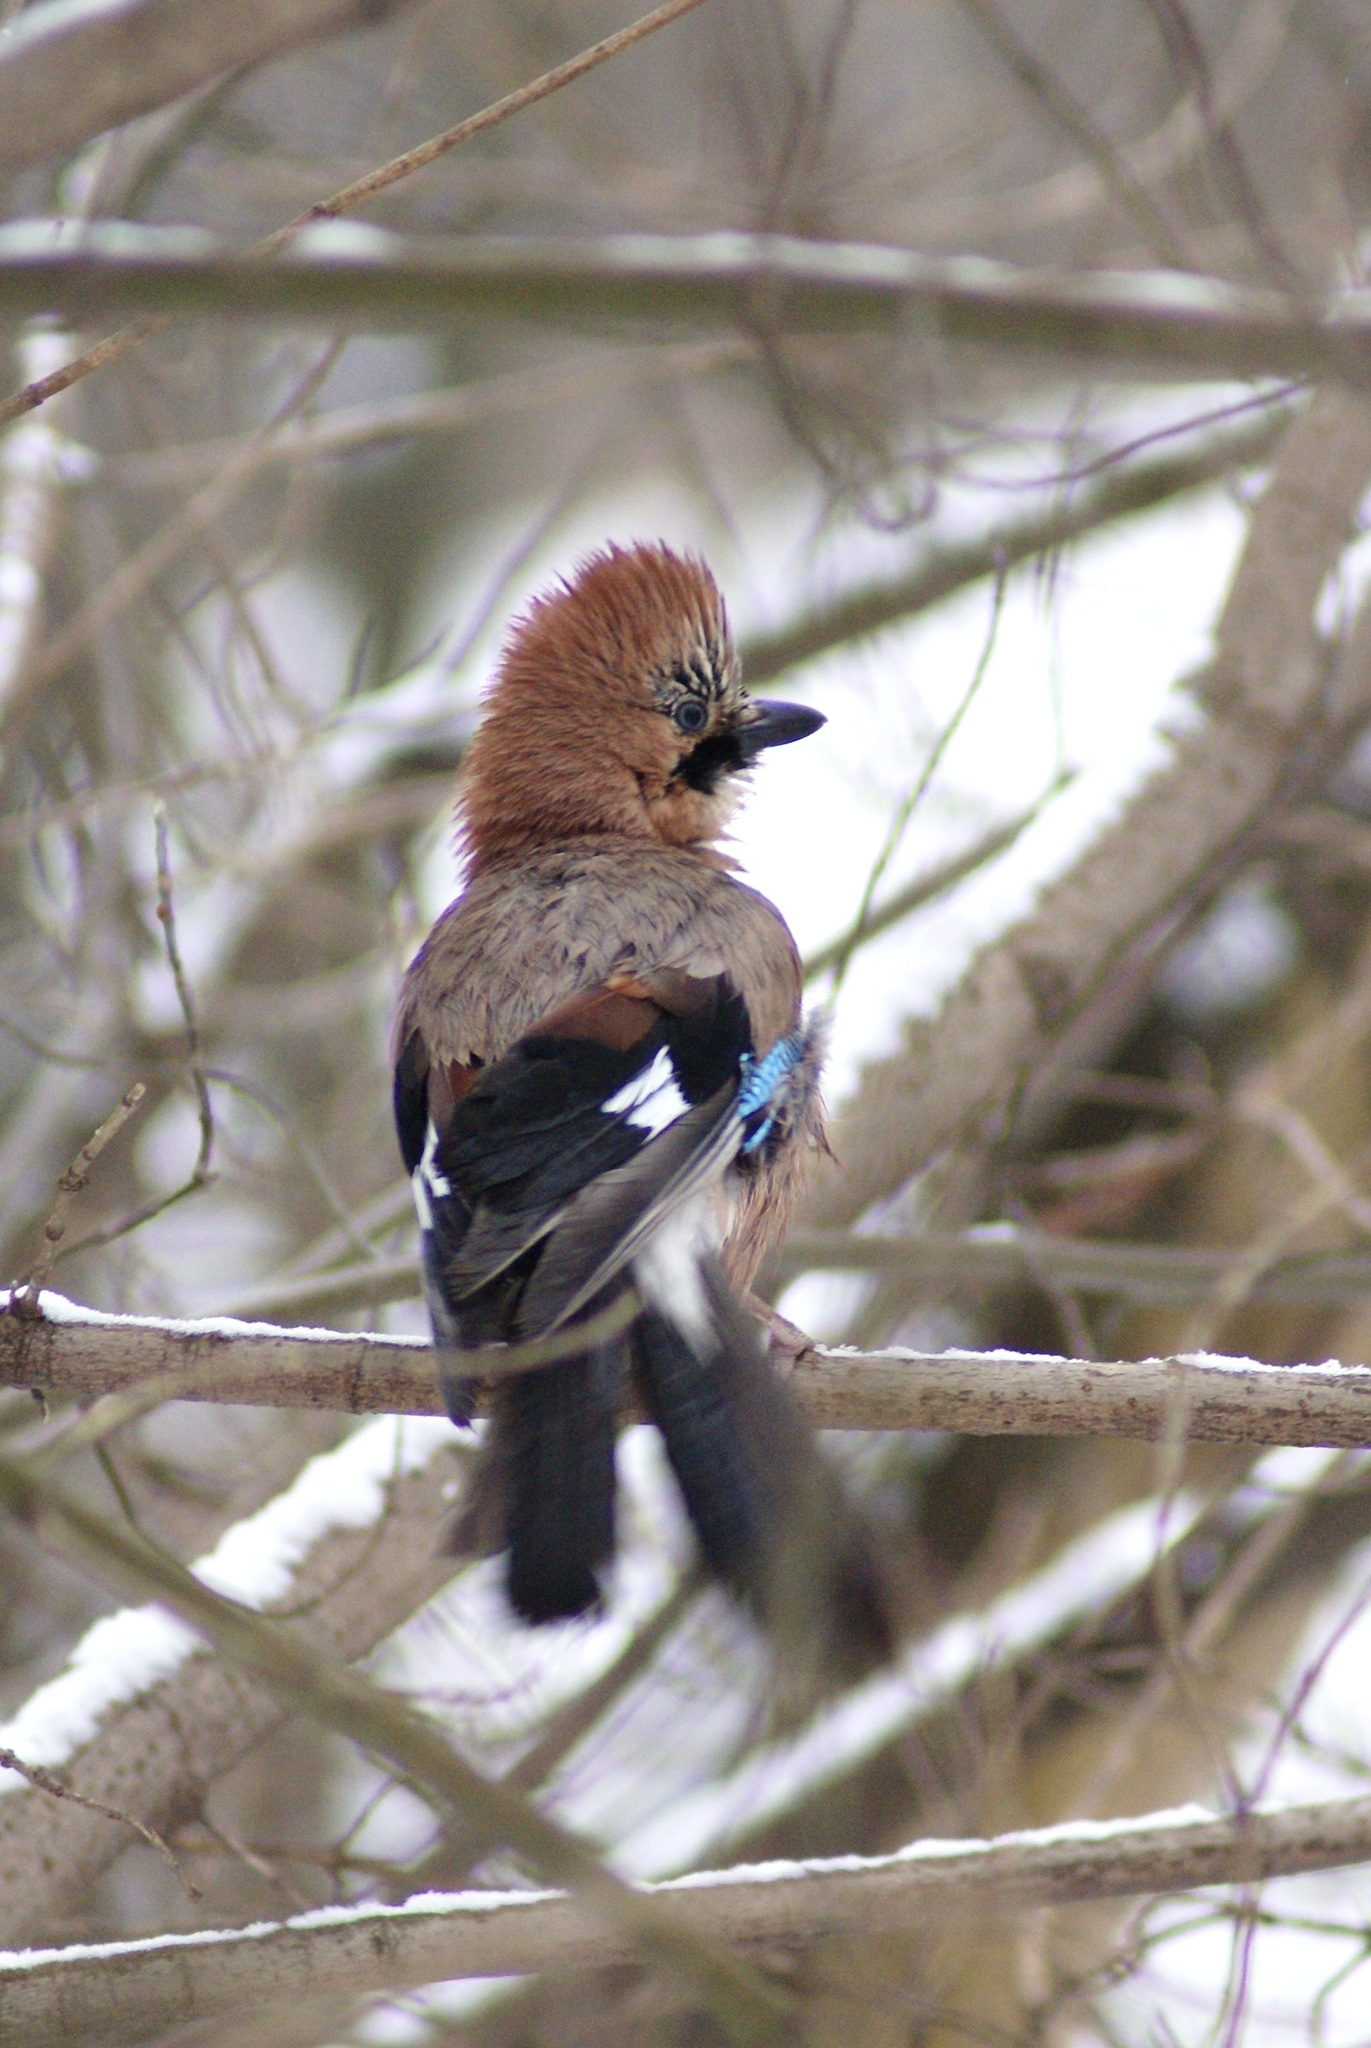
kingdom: Animalia
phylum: Chordata
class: Aves
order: Passeriformes
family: Corvidae
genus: Garrulus
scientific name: Garrulus glandarius
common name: Eurasian jay
